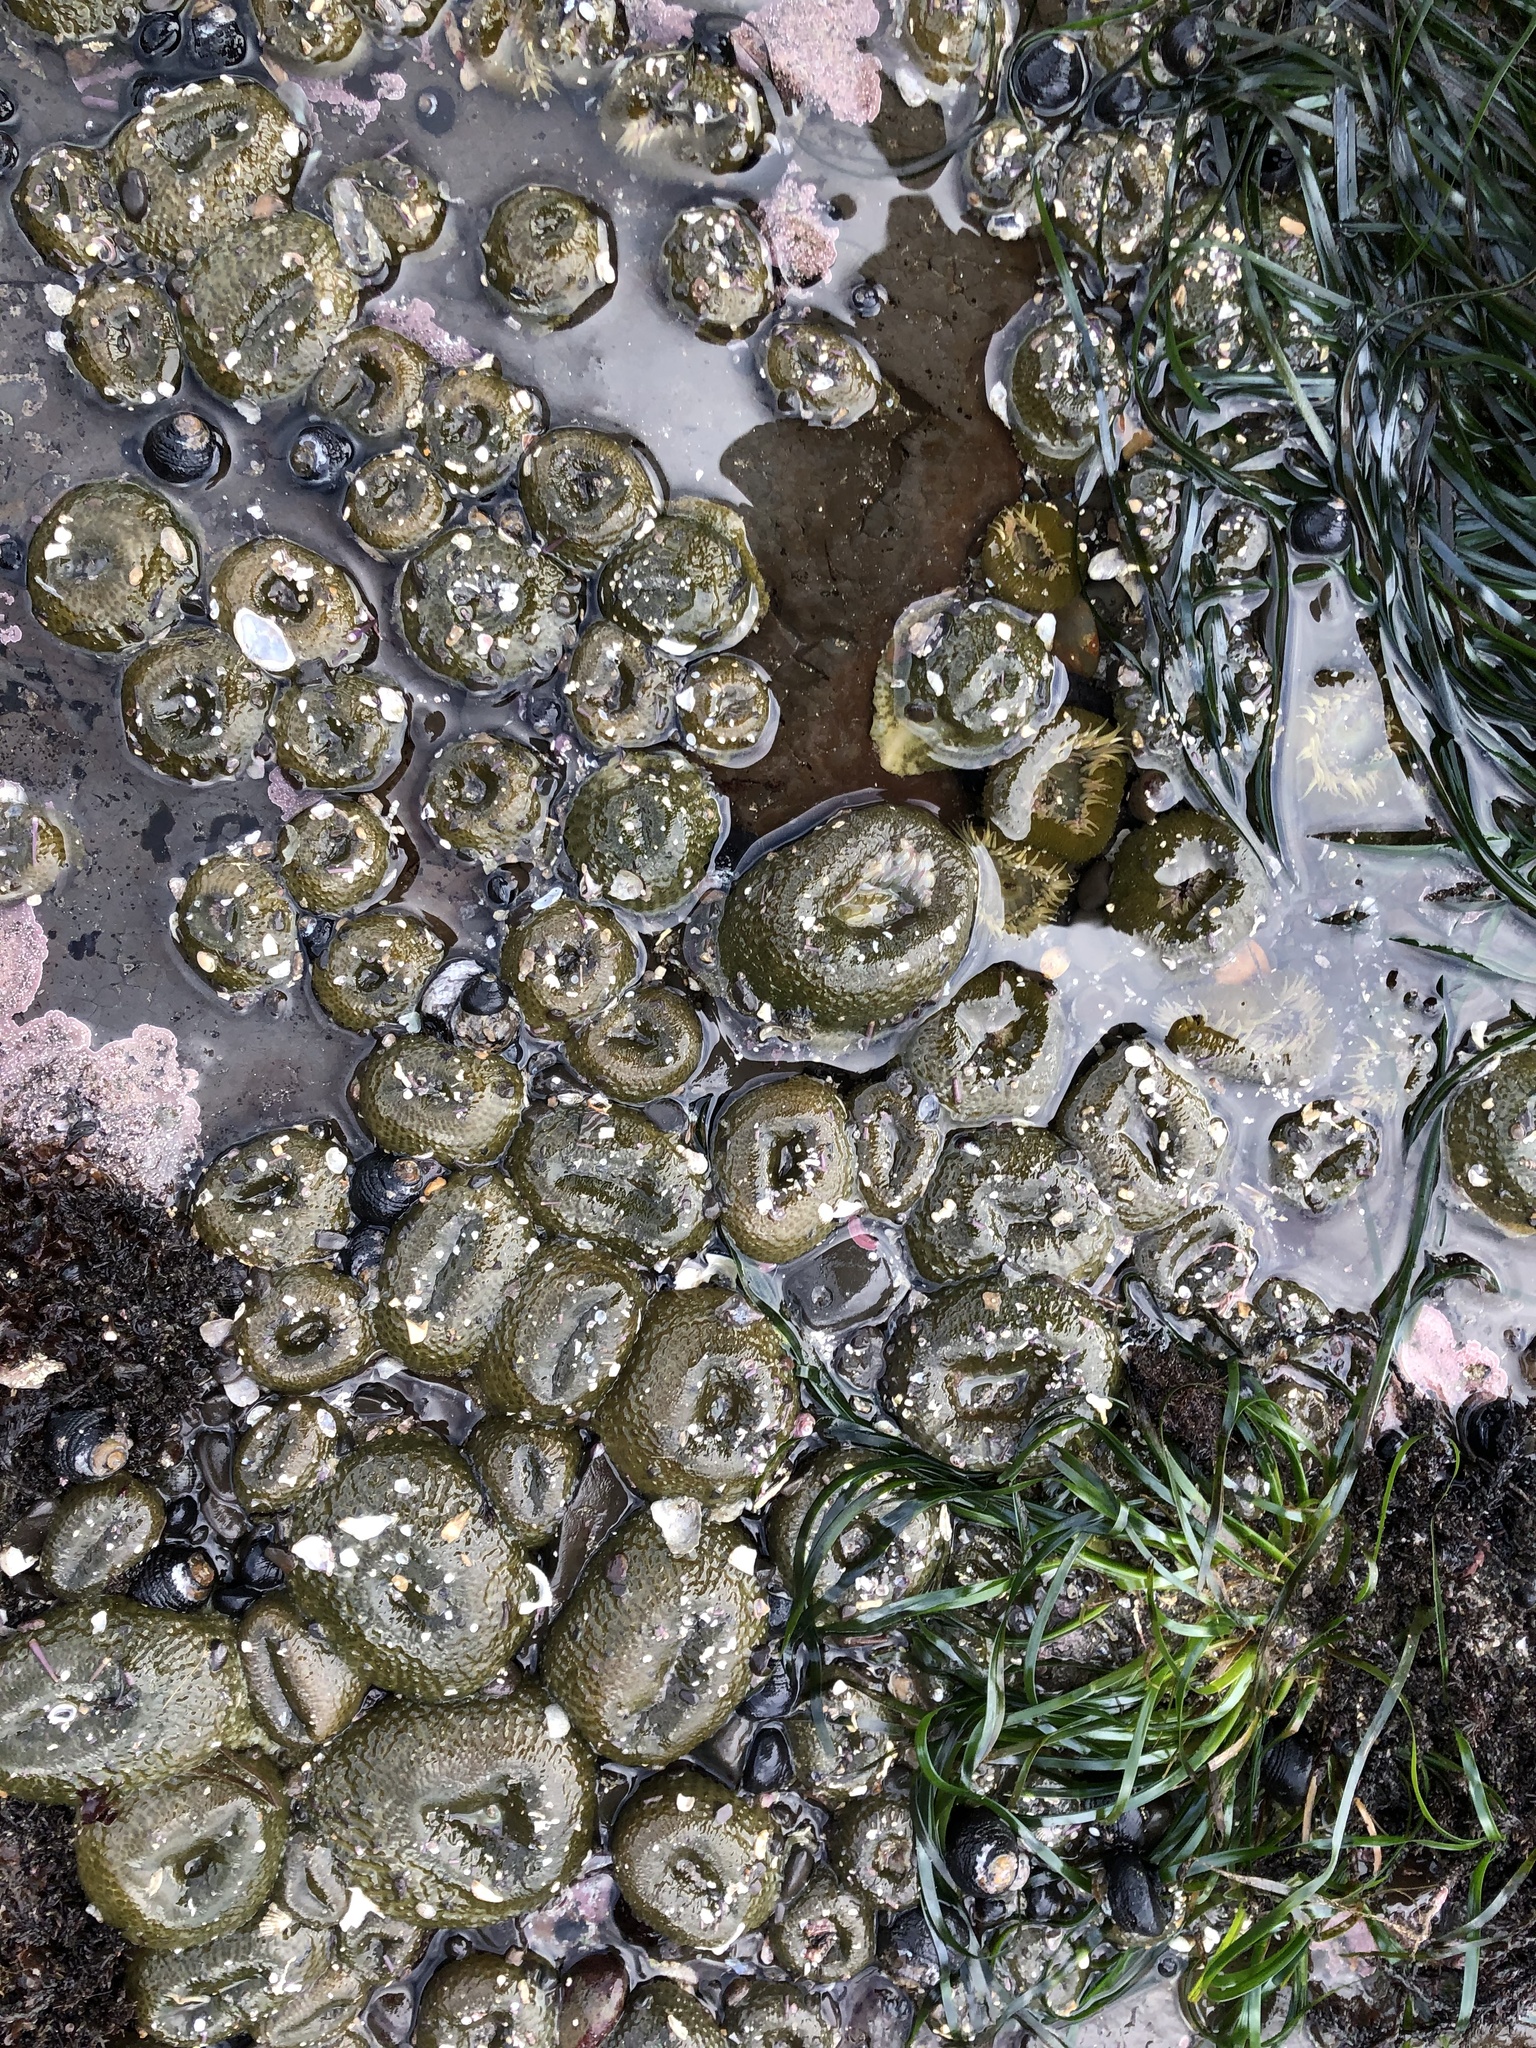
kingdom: Animalia
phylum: Cnidaria
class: Anthozoa
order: Actiniaria
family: Actiniidae
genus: Anthopleura
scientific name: Anthopleura elegantissima
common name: Clonal anemone
